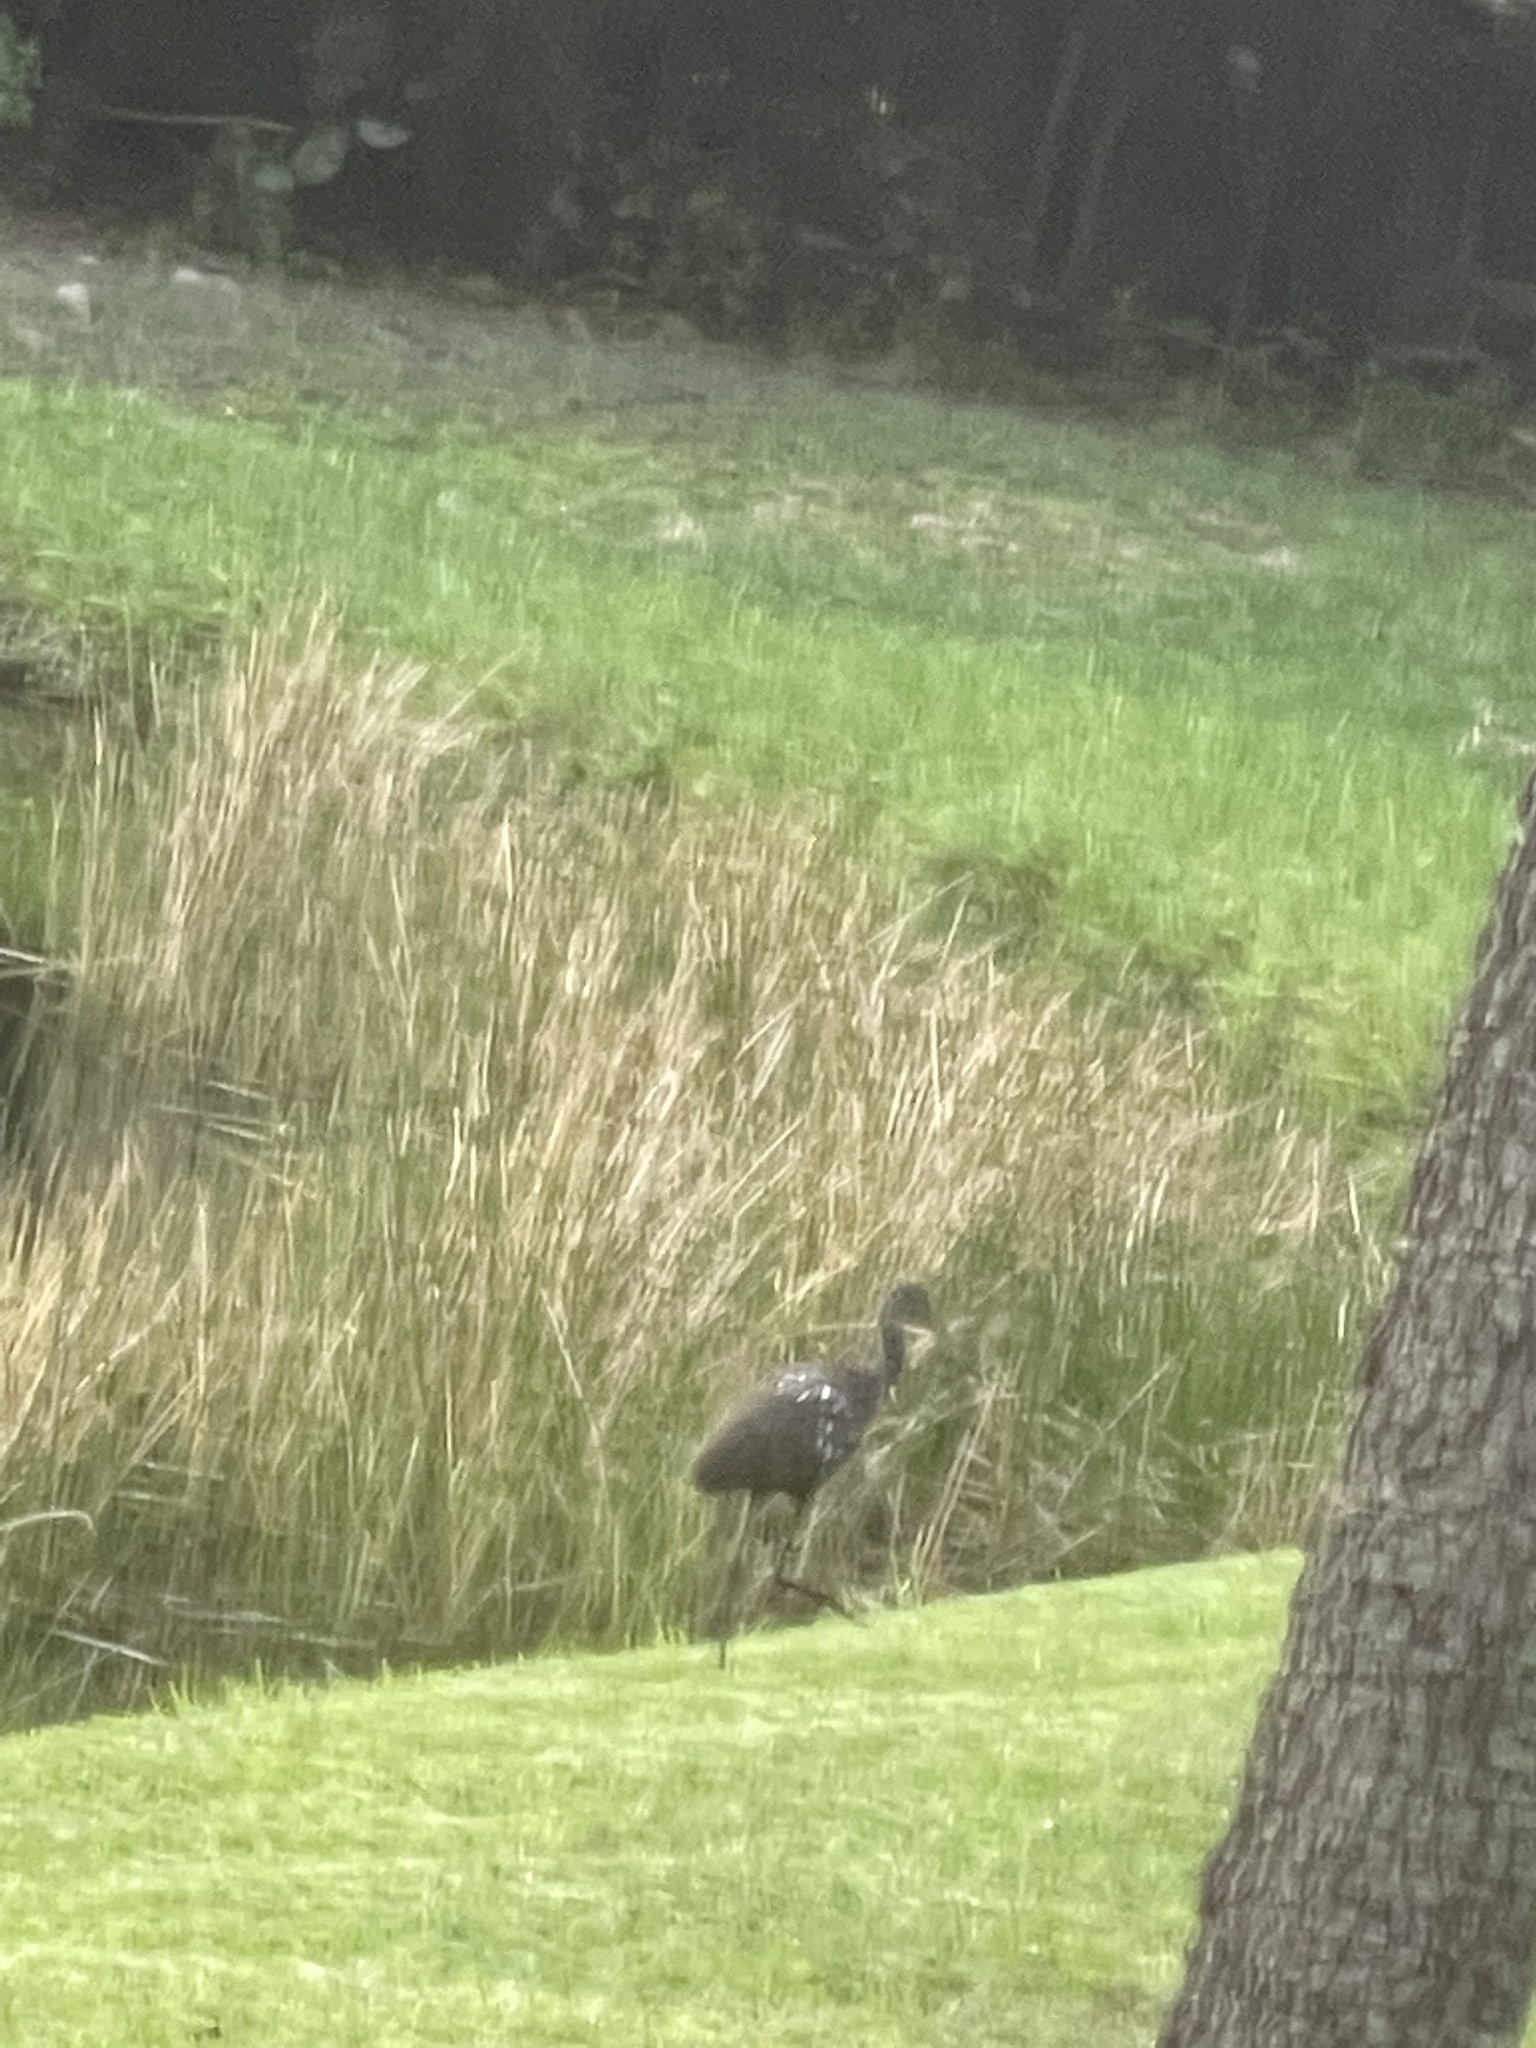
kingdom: Animalia
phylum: Chordata
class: Aves
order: Gruiformes
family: Aramidae
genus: Aramus
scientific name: Aramus guarauna
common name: Limpkin
